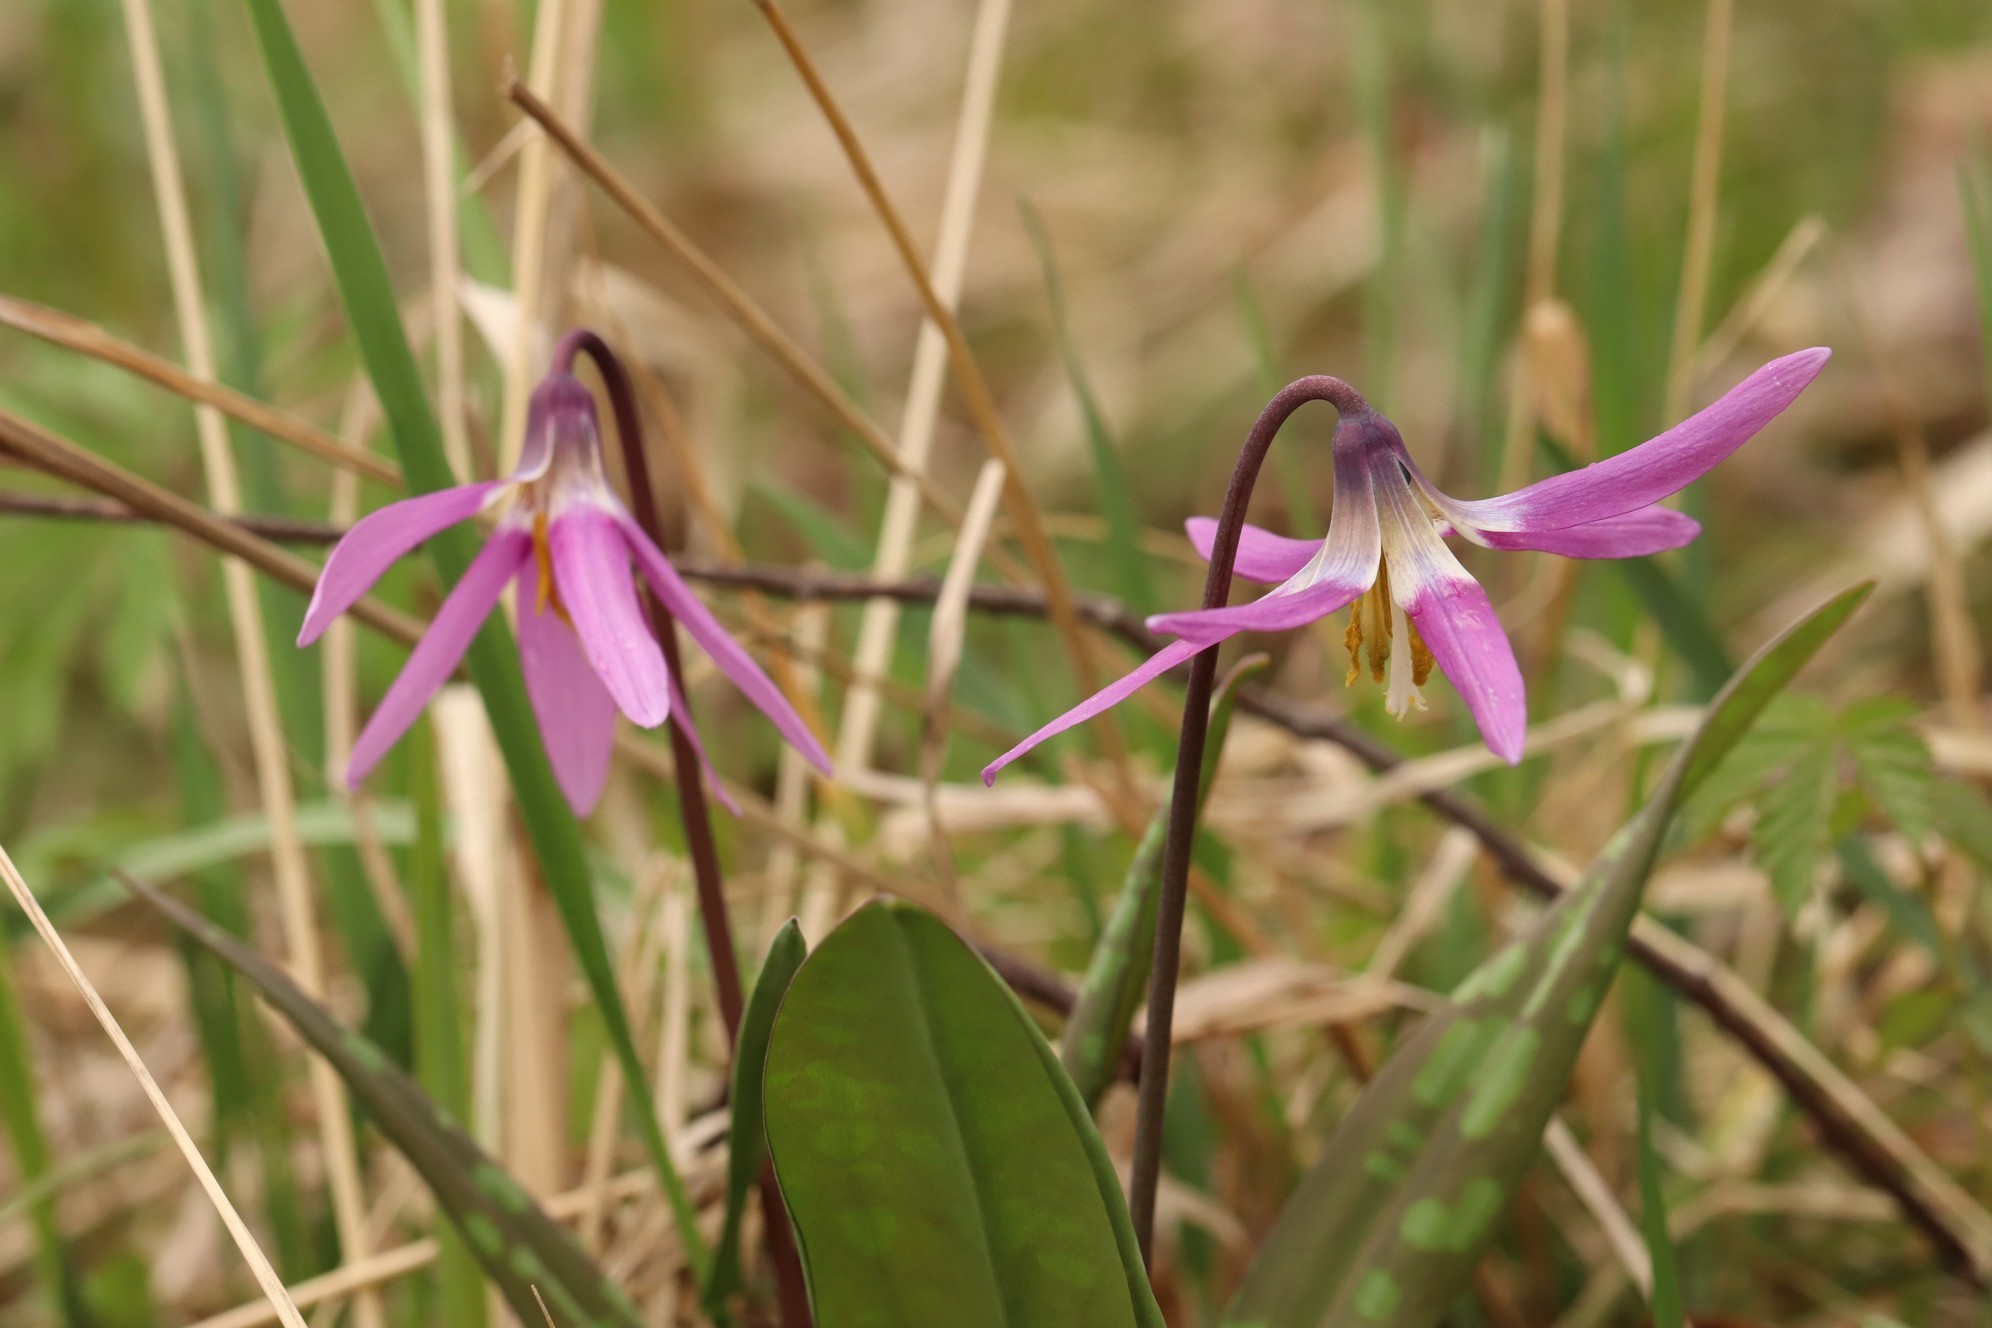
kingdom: Plantae
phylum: Tracheophyta
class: Liliopsida
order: Liliales
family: Liliaceae
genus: Erythronium
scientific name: Erythronium sibiricum
